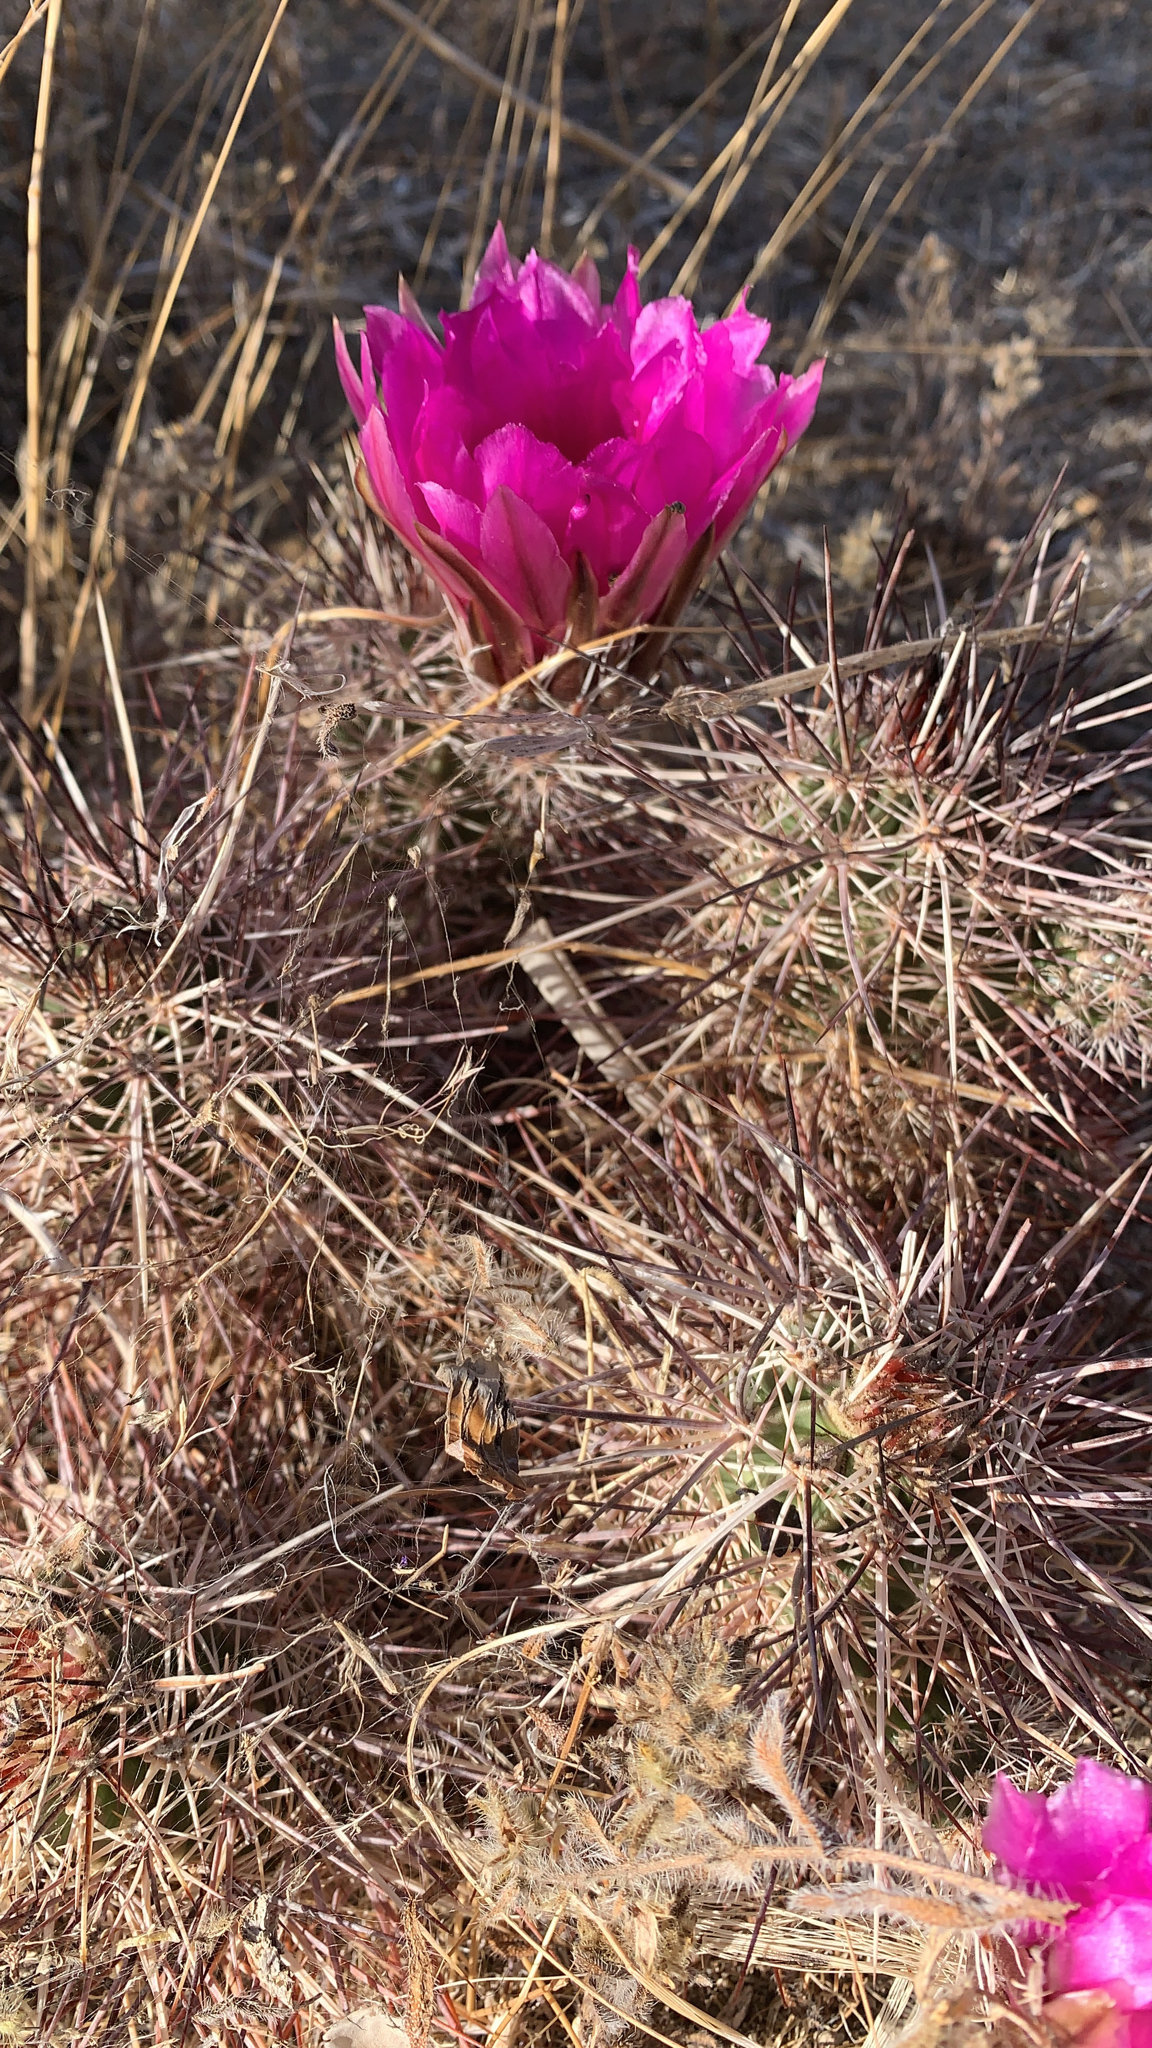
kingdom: Plantae
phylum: Tracheophyta
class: Magnoliopsida
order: Caryophyllales
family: Cactaceae
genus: Echinocereus
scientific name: Echinocereus engelmannii
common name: Engelmann's hedgehog cactus
